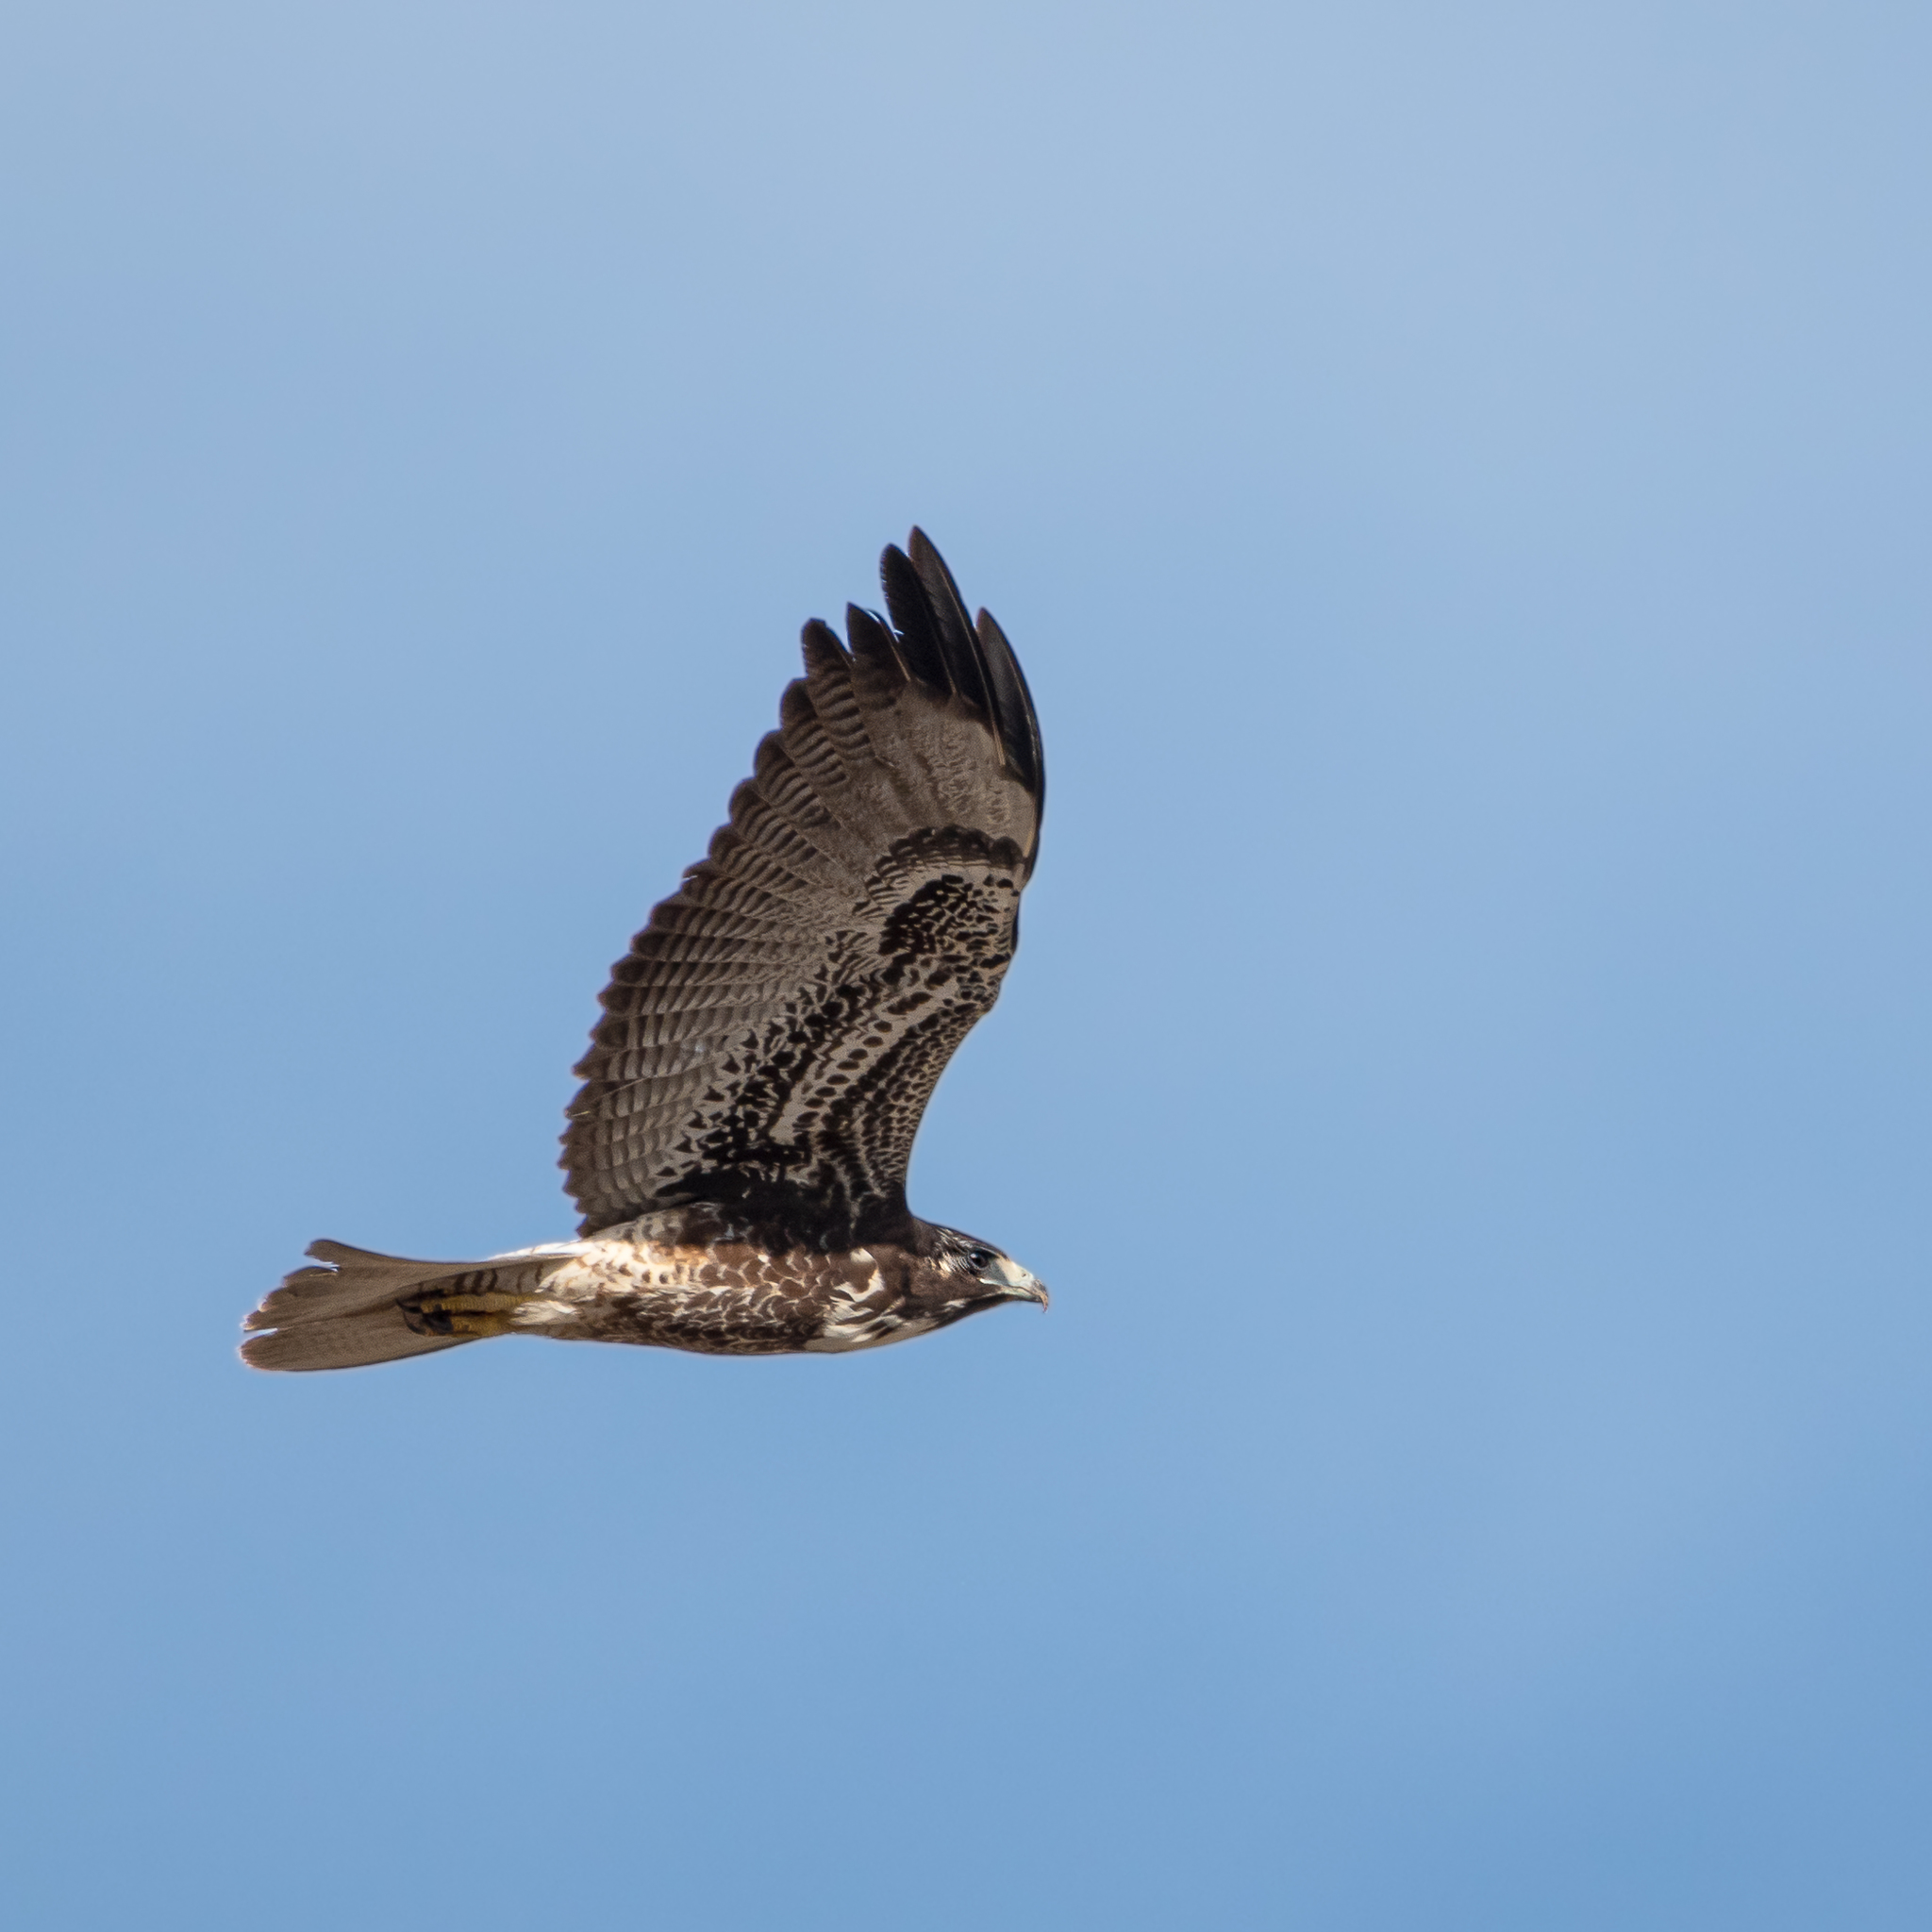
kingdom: Animalia
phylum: Chordata
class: Aves
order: Accipitriformes
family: Accipitridae
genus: Buteo
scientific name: Buteo albicaudatus
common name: White-tailed hawk
